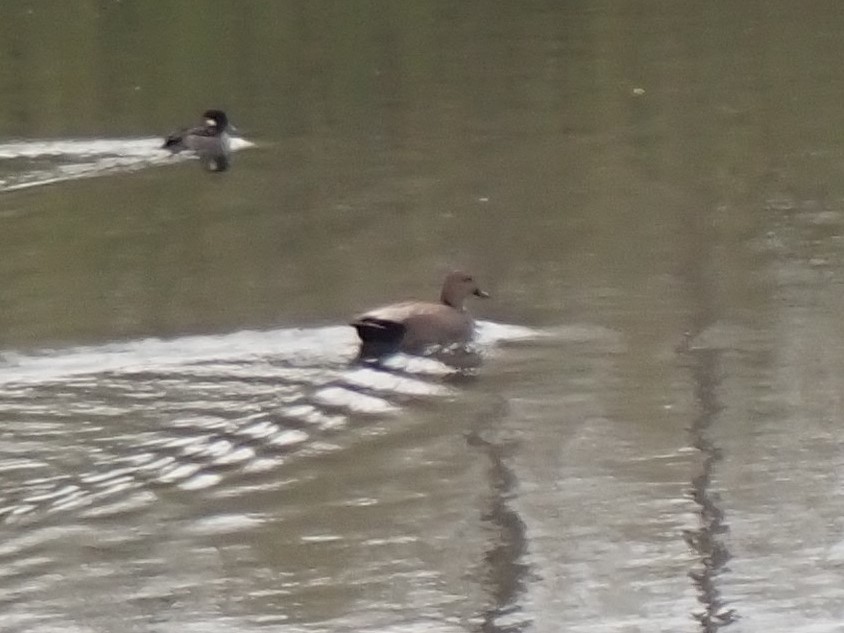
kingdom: Animalia
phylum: Chordata
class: Aves
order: Anseriformes
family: Anatidae
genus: Mareca
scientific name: Mareca strepera
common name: Gadwall
